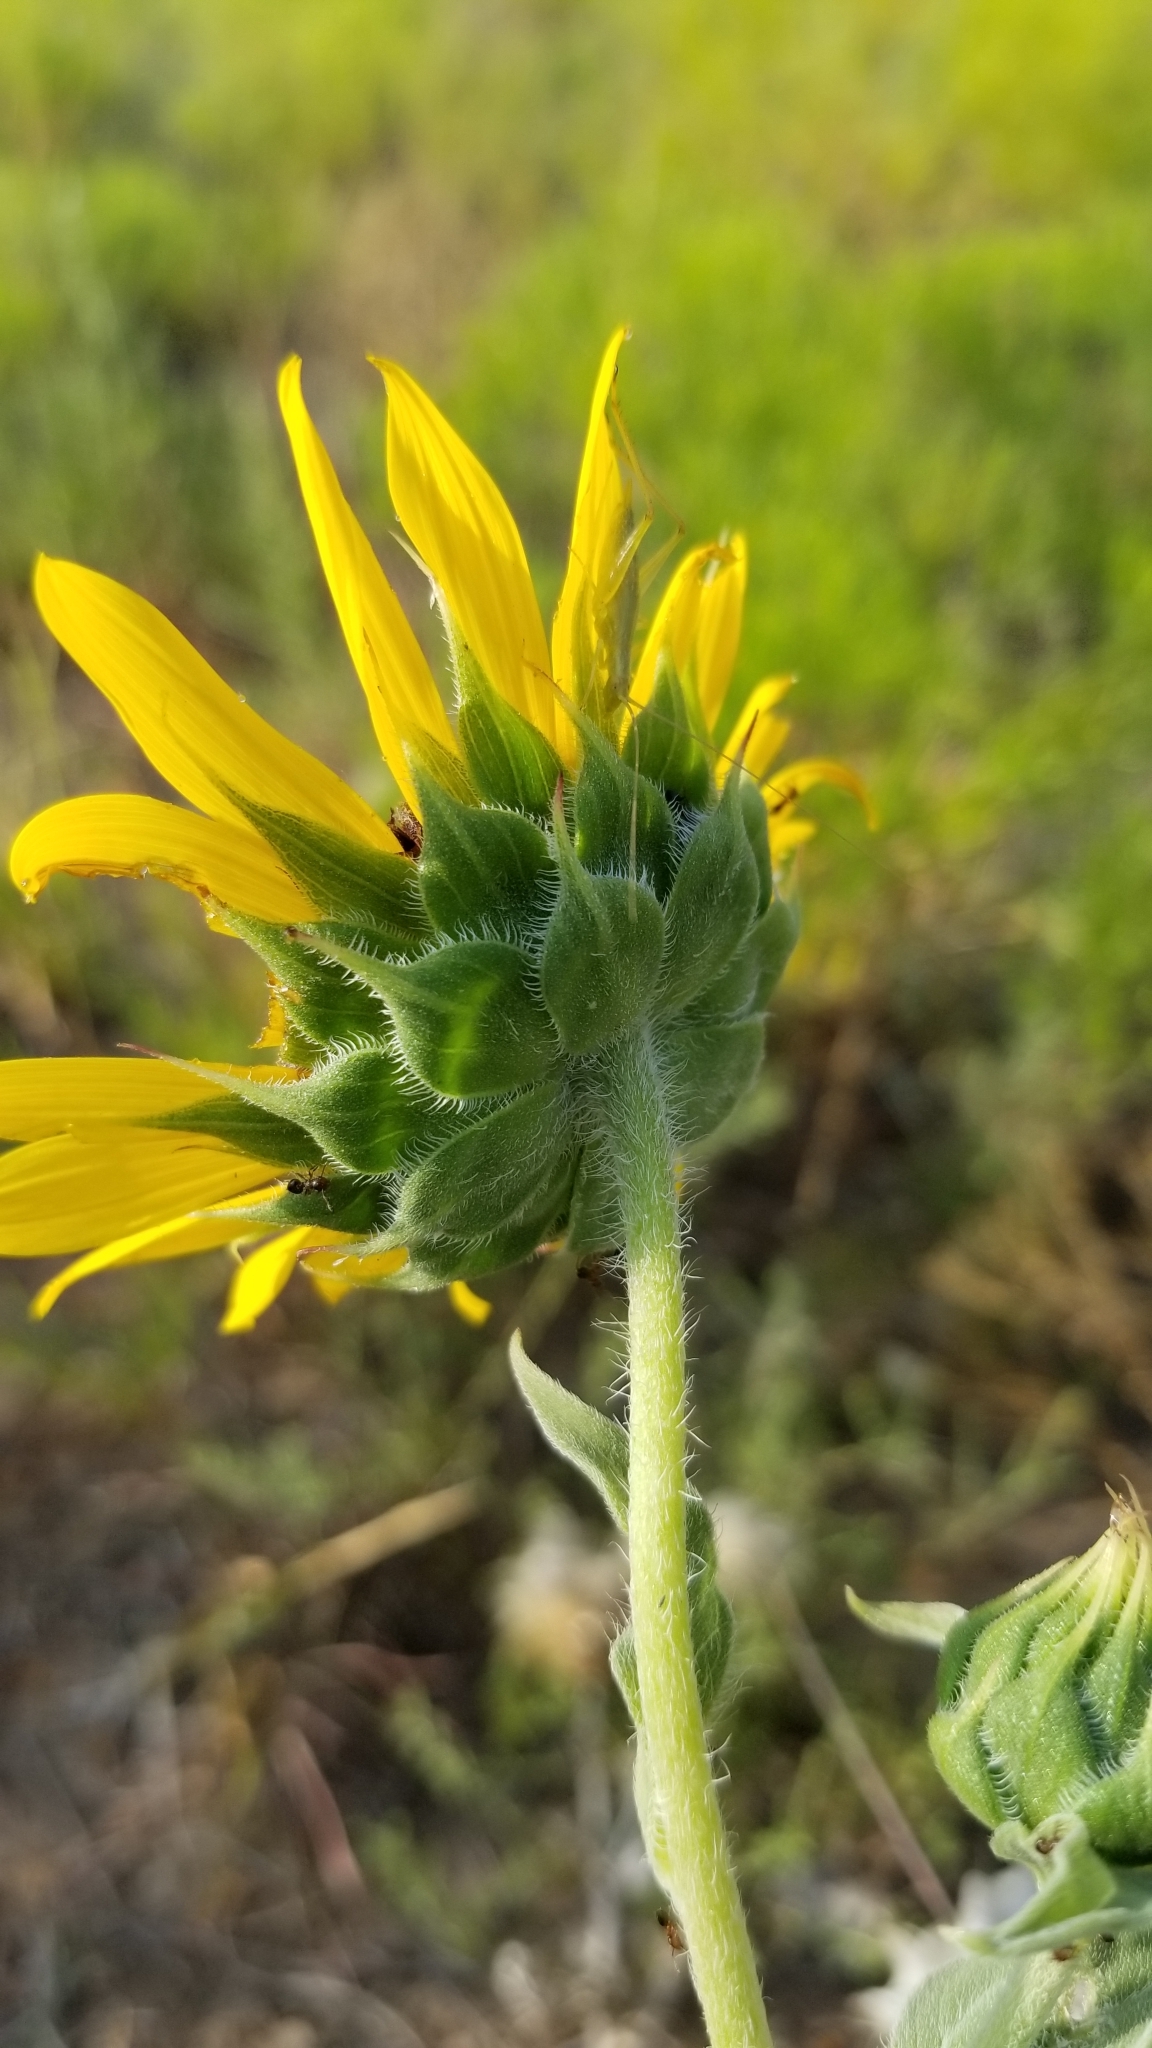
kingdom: Plantae
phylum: Tracheophyta
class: Magnoliopsida
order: Asterales
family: Asteraceae
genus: Helianthus
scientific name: Helianthus annuus
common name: Sunflower
